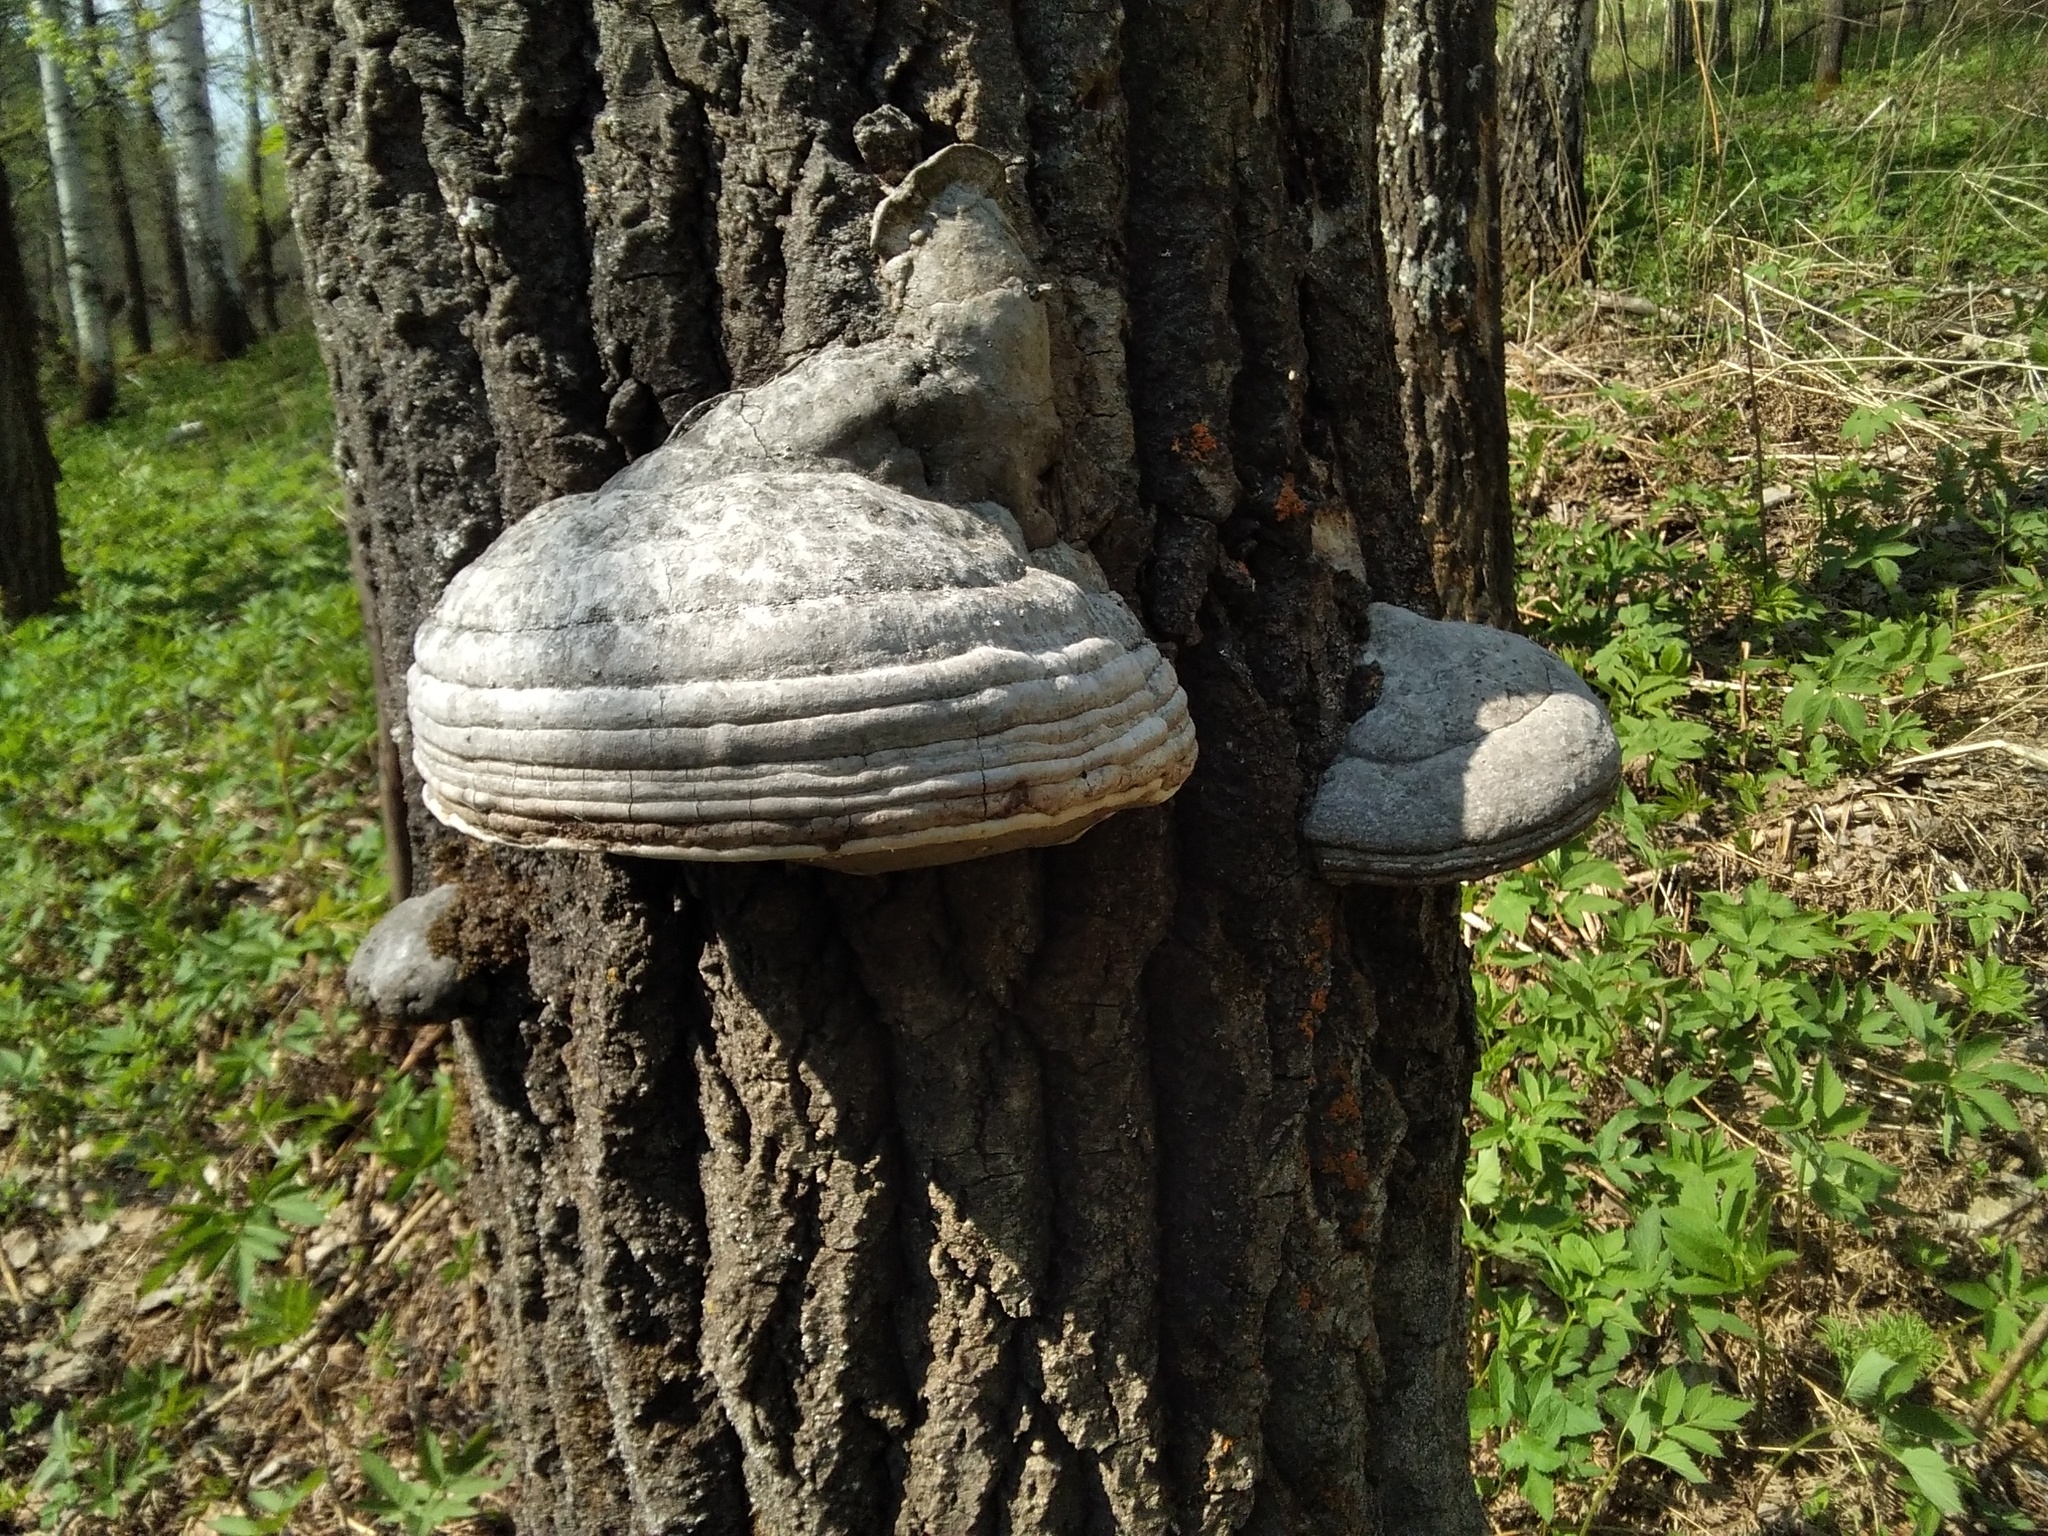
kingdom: Fungi
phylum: Basidiomycota
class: Agaricomycetes
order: Polyporales
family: Polyporaceae
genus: Fomes
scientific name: Fomes fomentarius
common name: Hoof fungus
